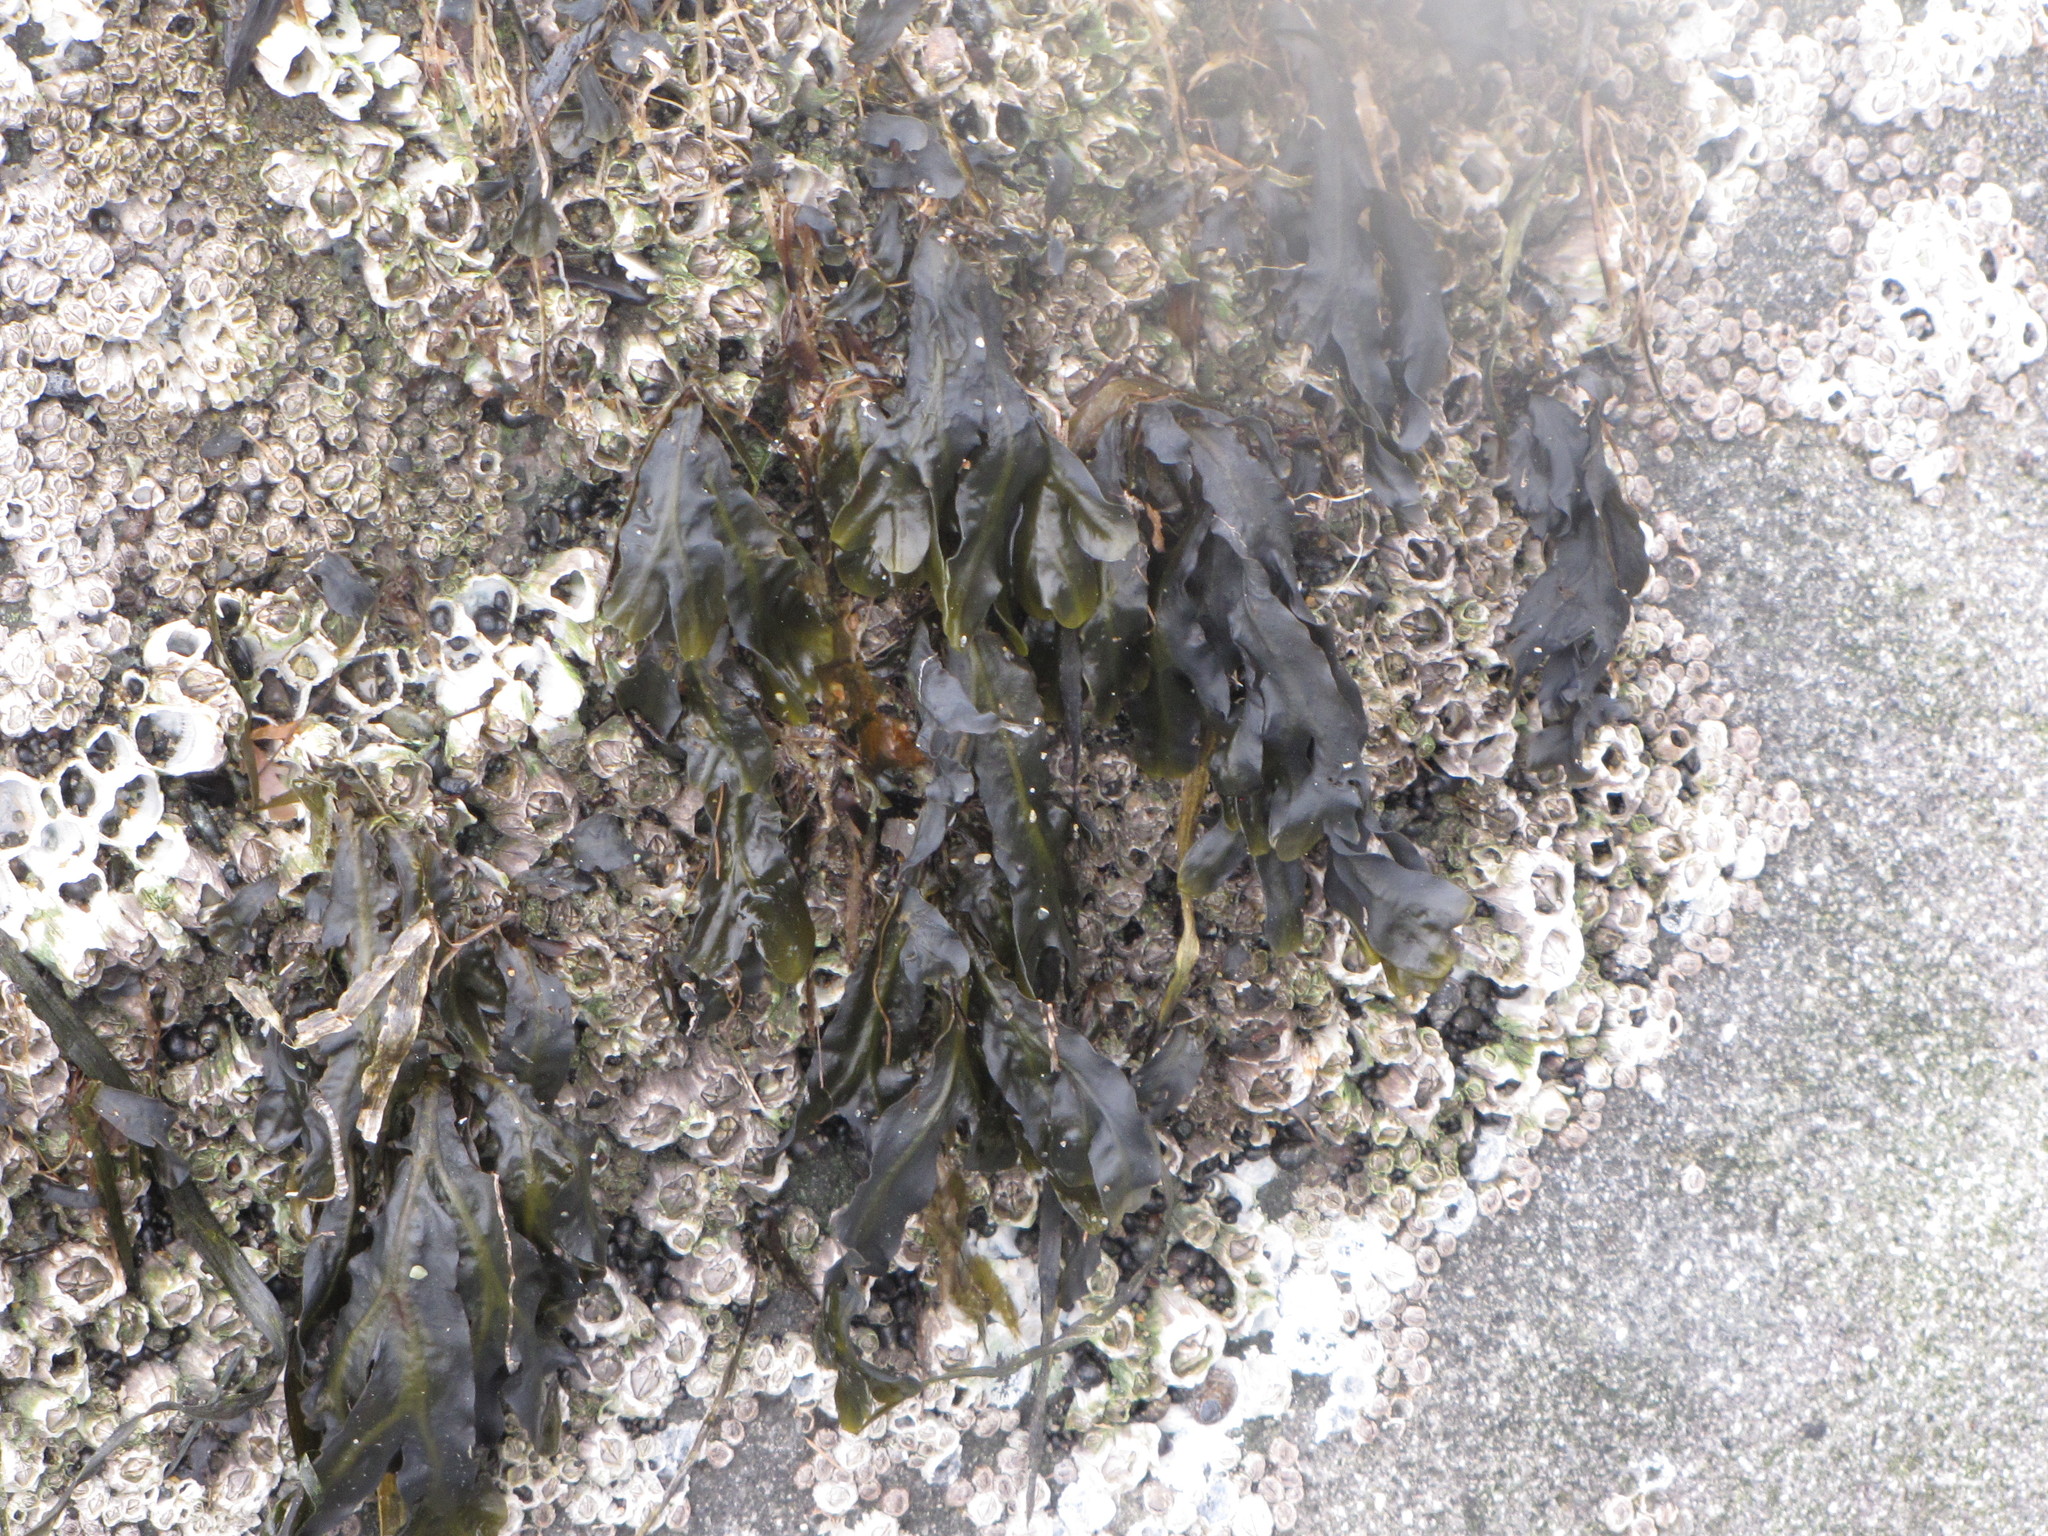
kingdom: Chromista
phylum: Ochrophyta
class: Phaeophyceae
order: Fucales
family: Fucaceae
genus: Fucus
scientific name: Fucus distichus
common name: Rockweed
